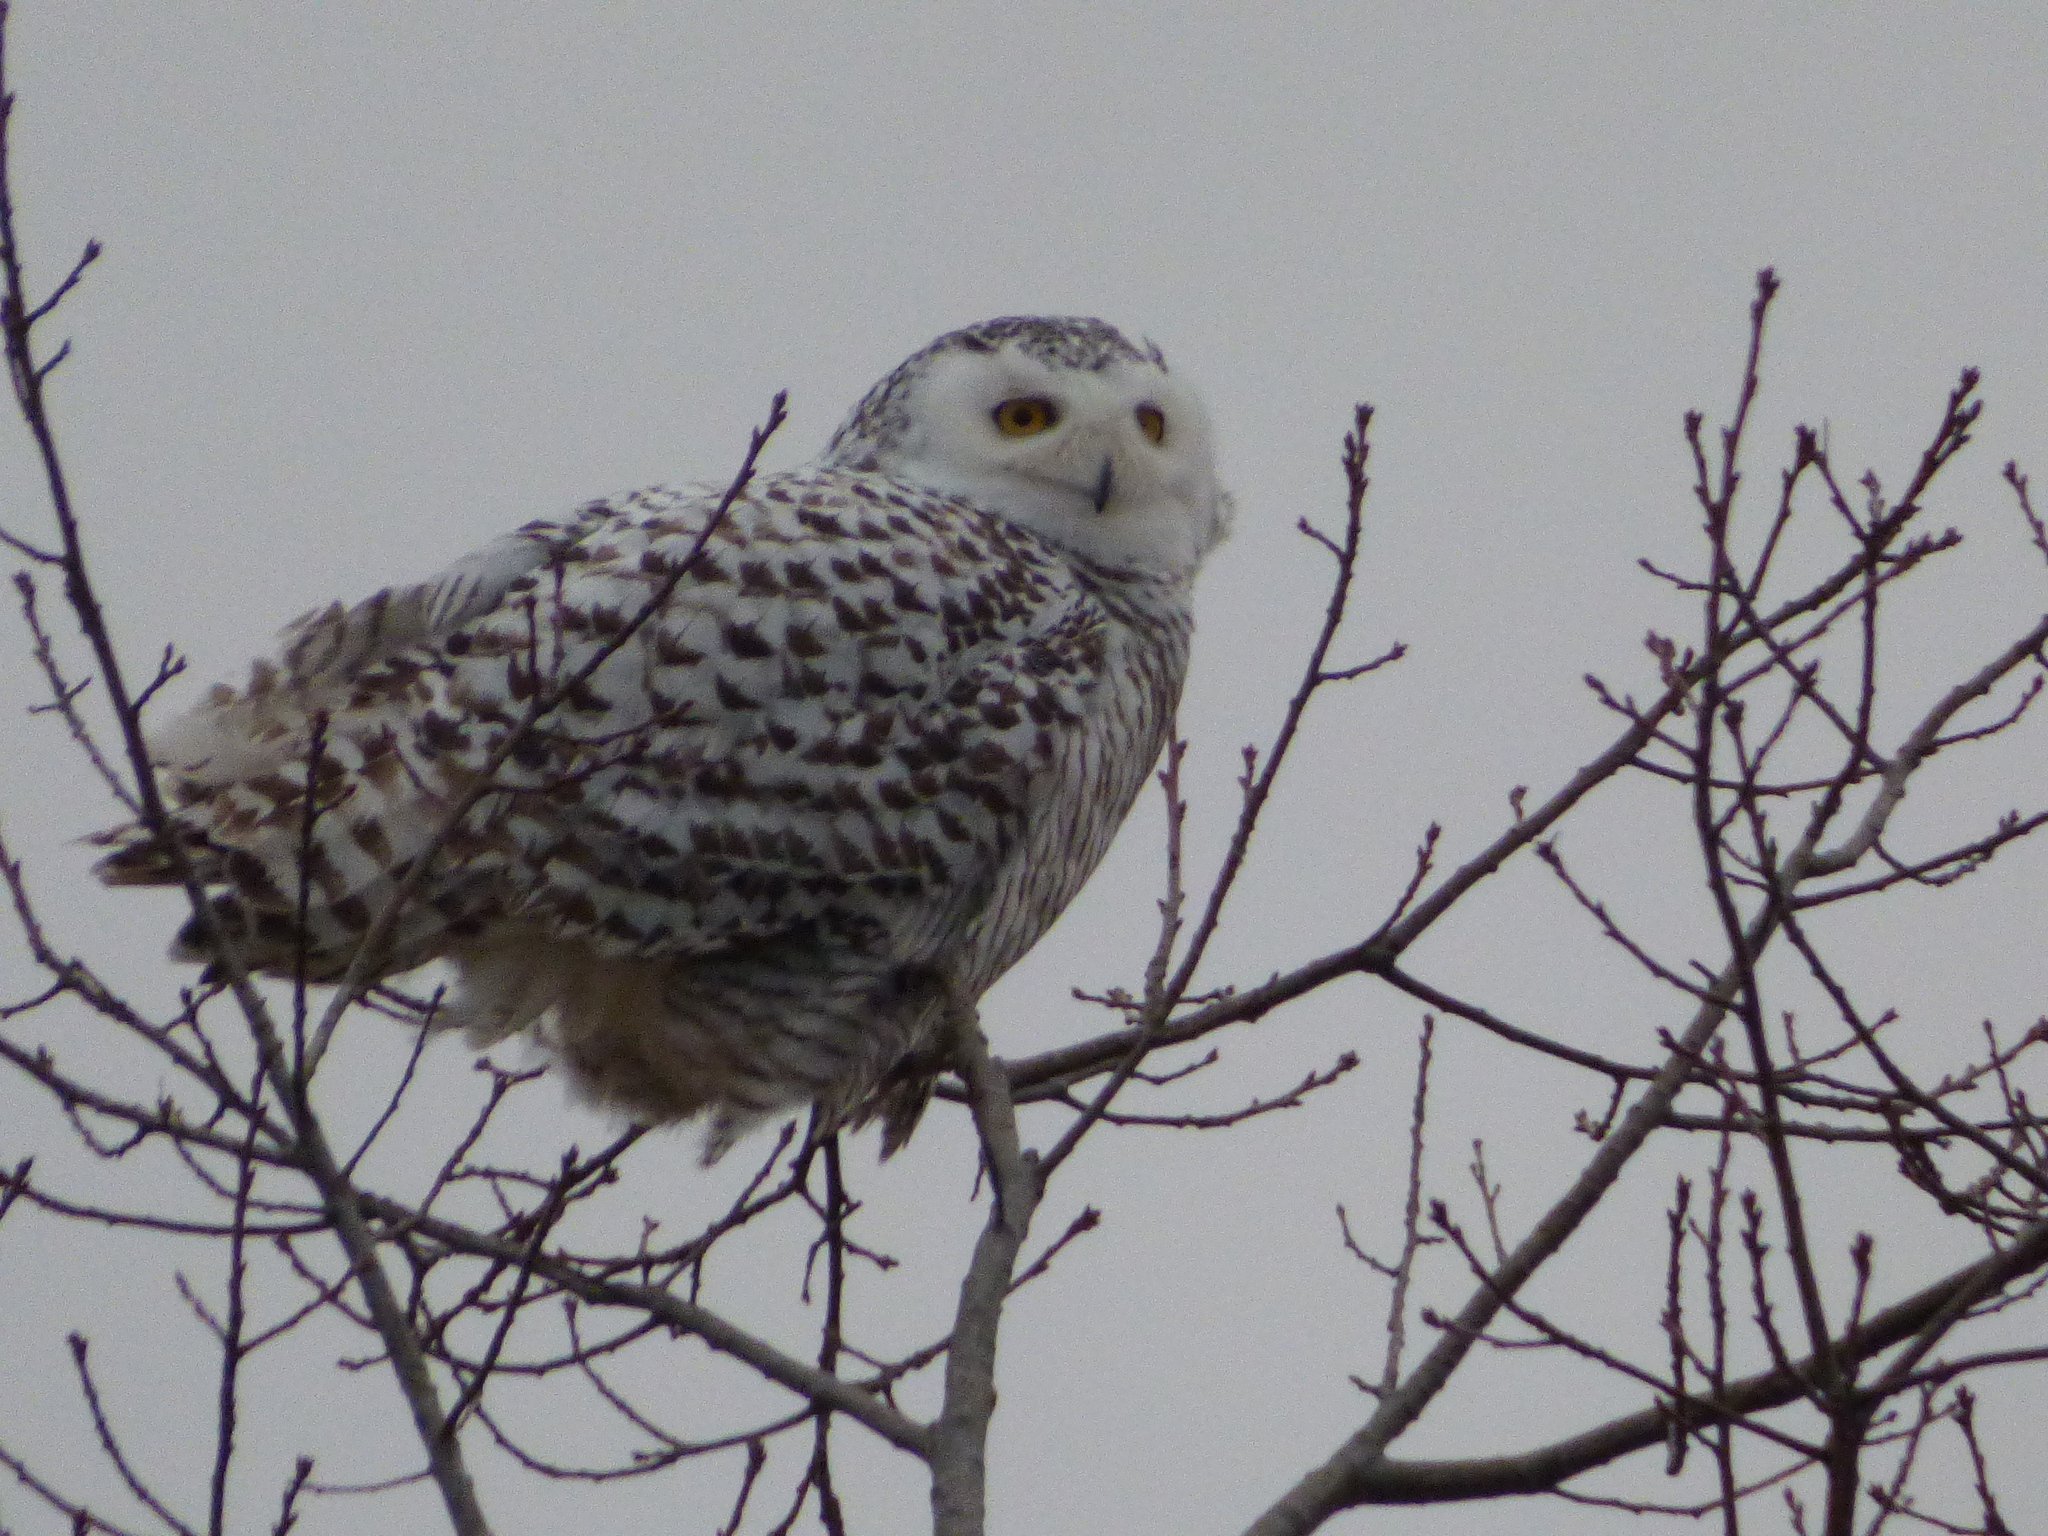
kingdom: Animalia
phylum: Chordata
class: Aves
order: Strigiformes
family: Strigidae
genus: Bubo
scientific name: Bubo scandiacus
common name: Snowy owl
